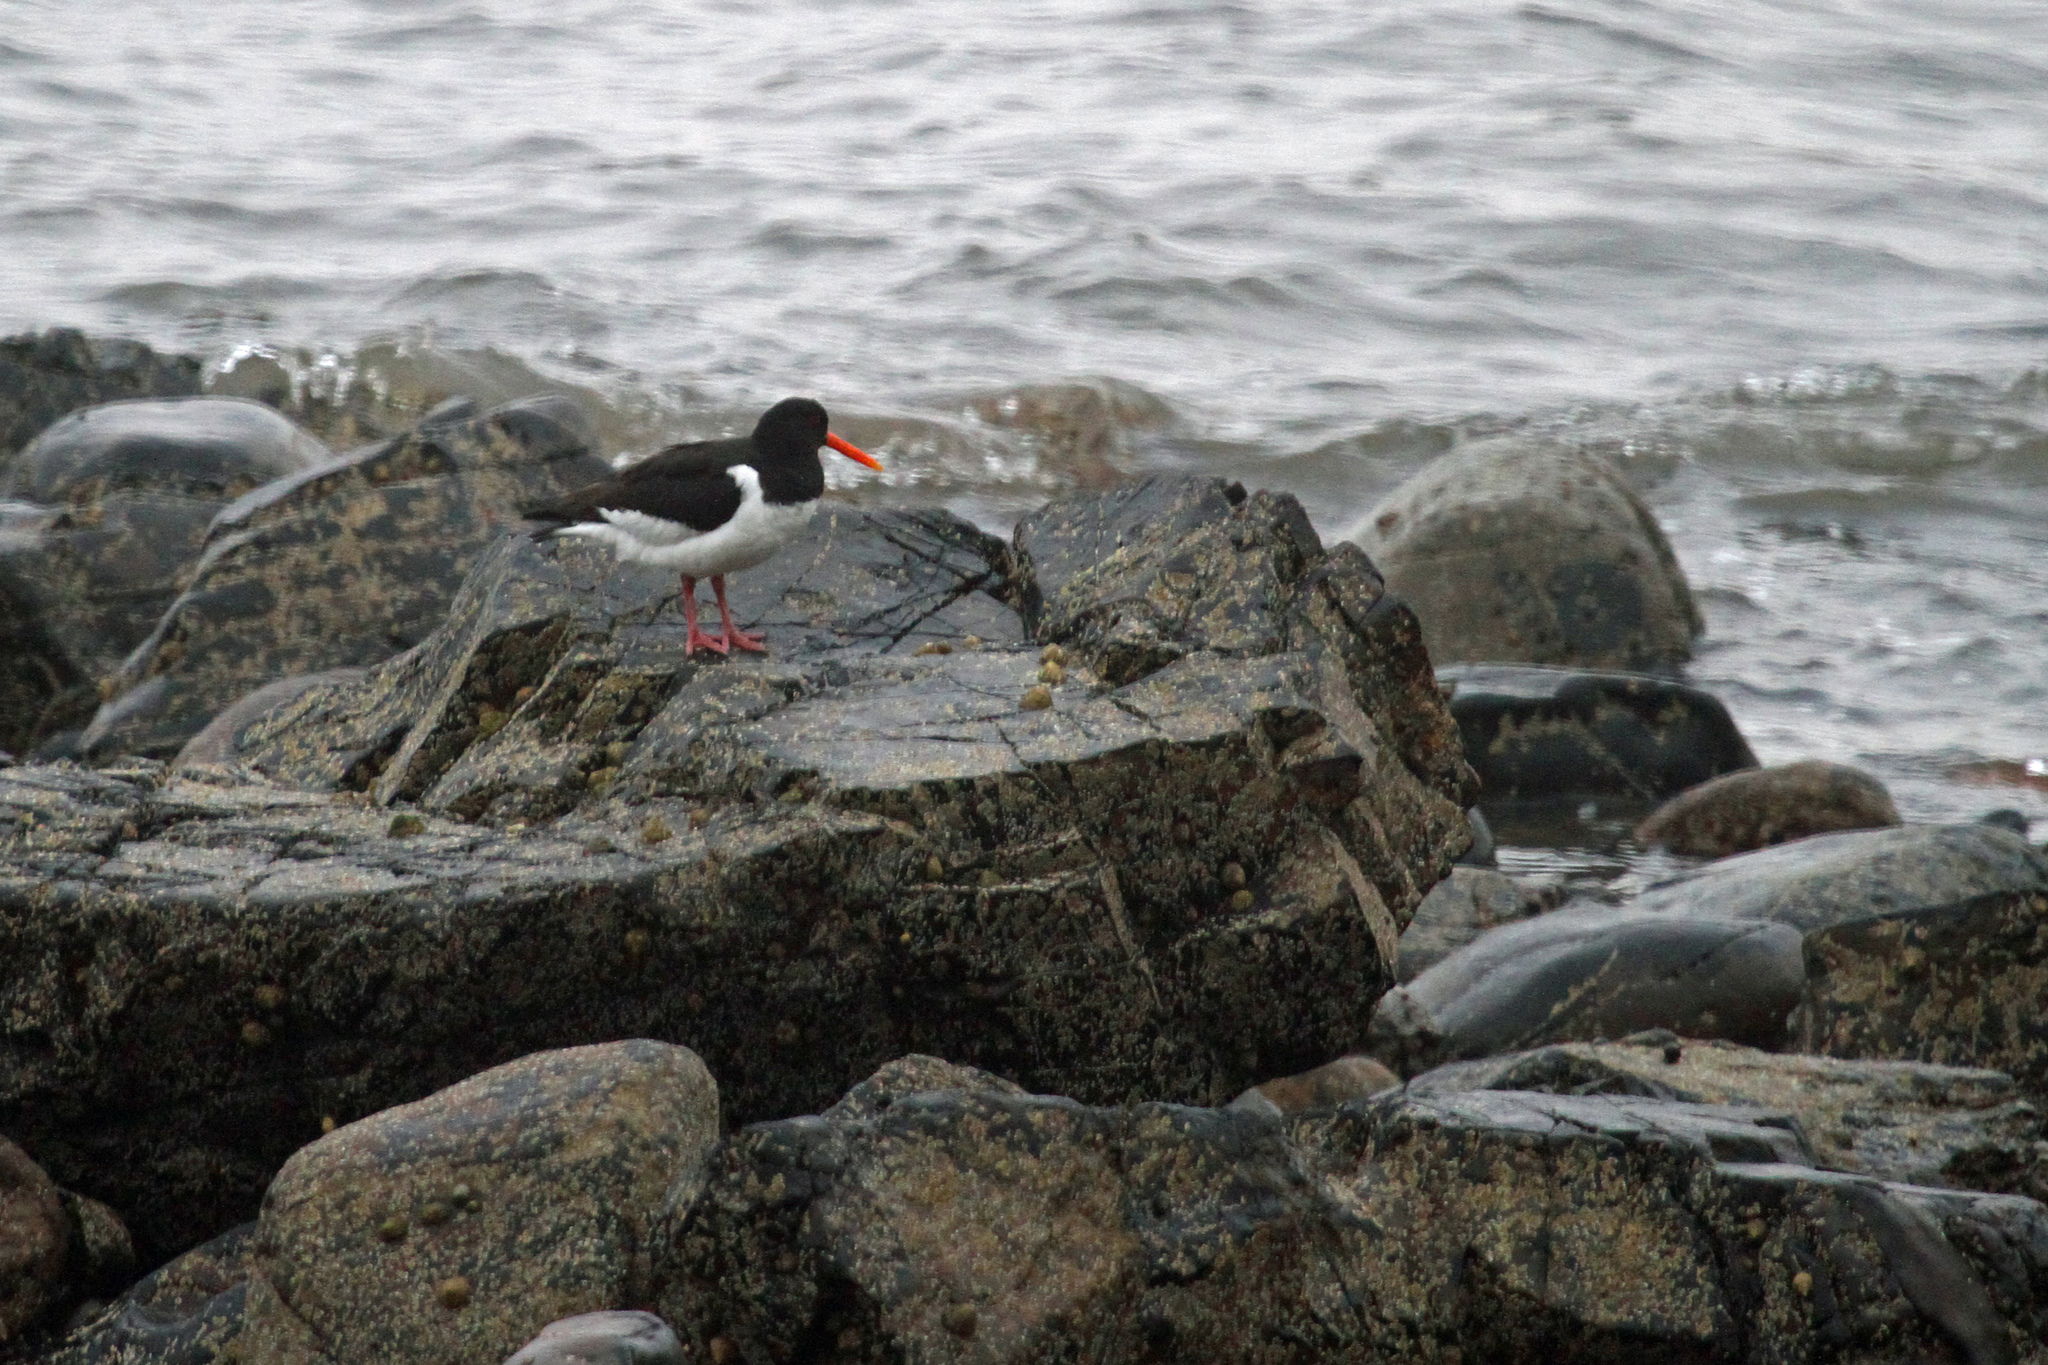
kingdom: Animalia
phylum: Chordata
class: Aves
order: Charadriiformes
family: Haematopodidae
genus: Haematopus
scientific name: Haematopus ostralegus
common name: Eurasian oystercatcher
